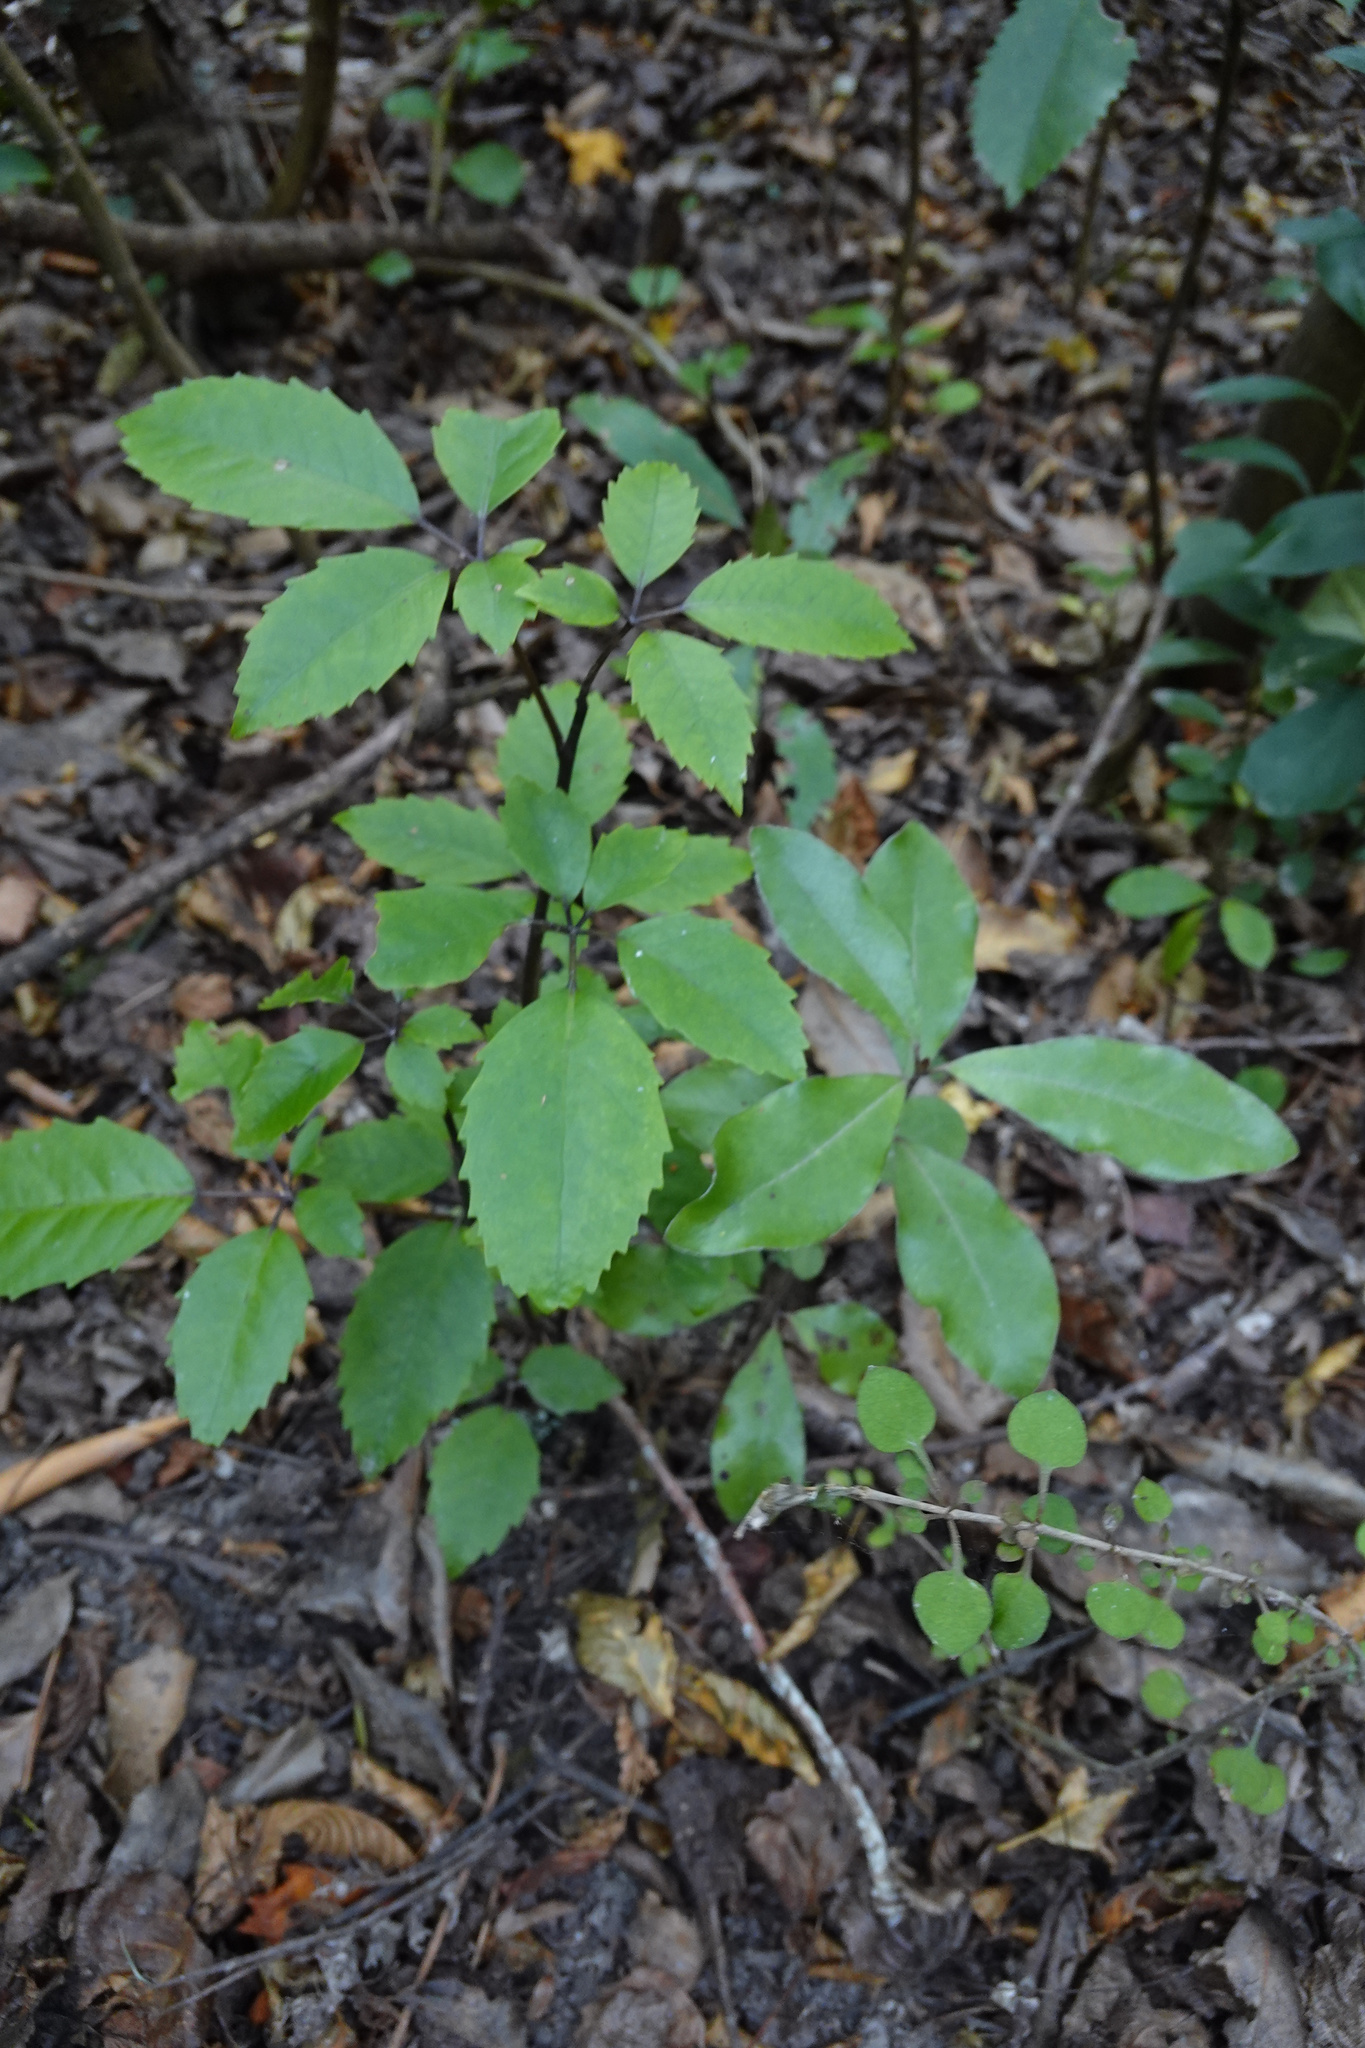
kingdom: Plantae
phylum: Tracheophyta
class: Magnoliopsida
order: Apiales
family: Araliaceae
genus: Neopanax
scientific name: Neopanax arboreus
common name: Five-fingers
